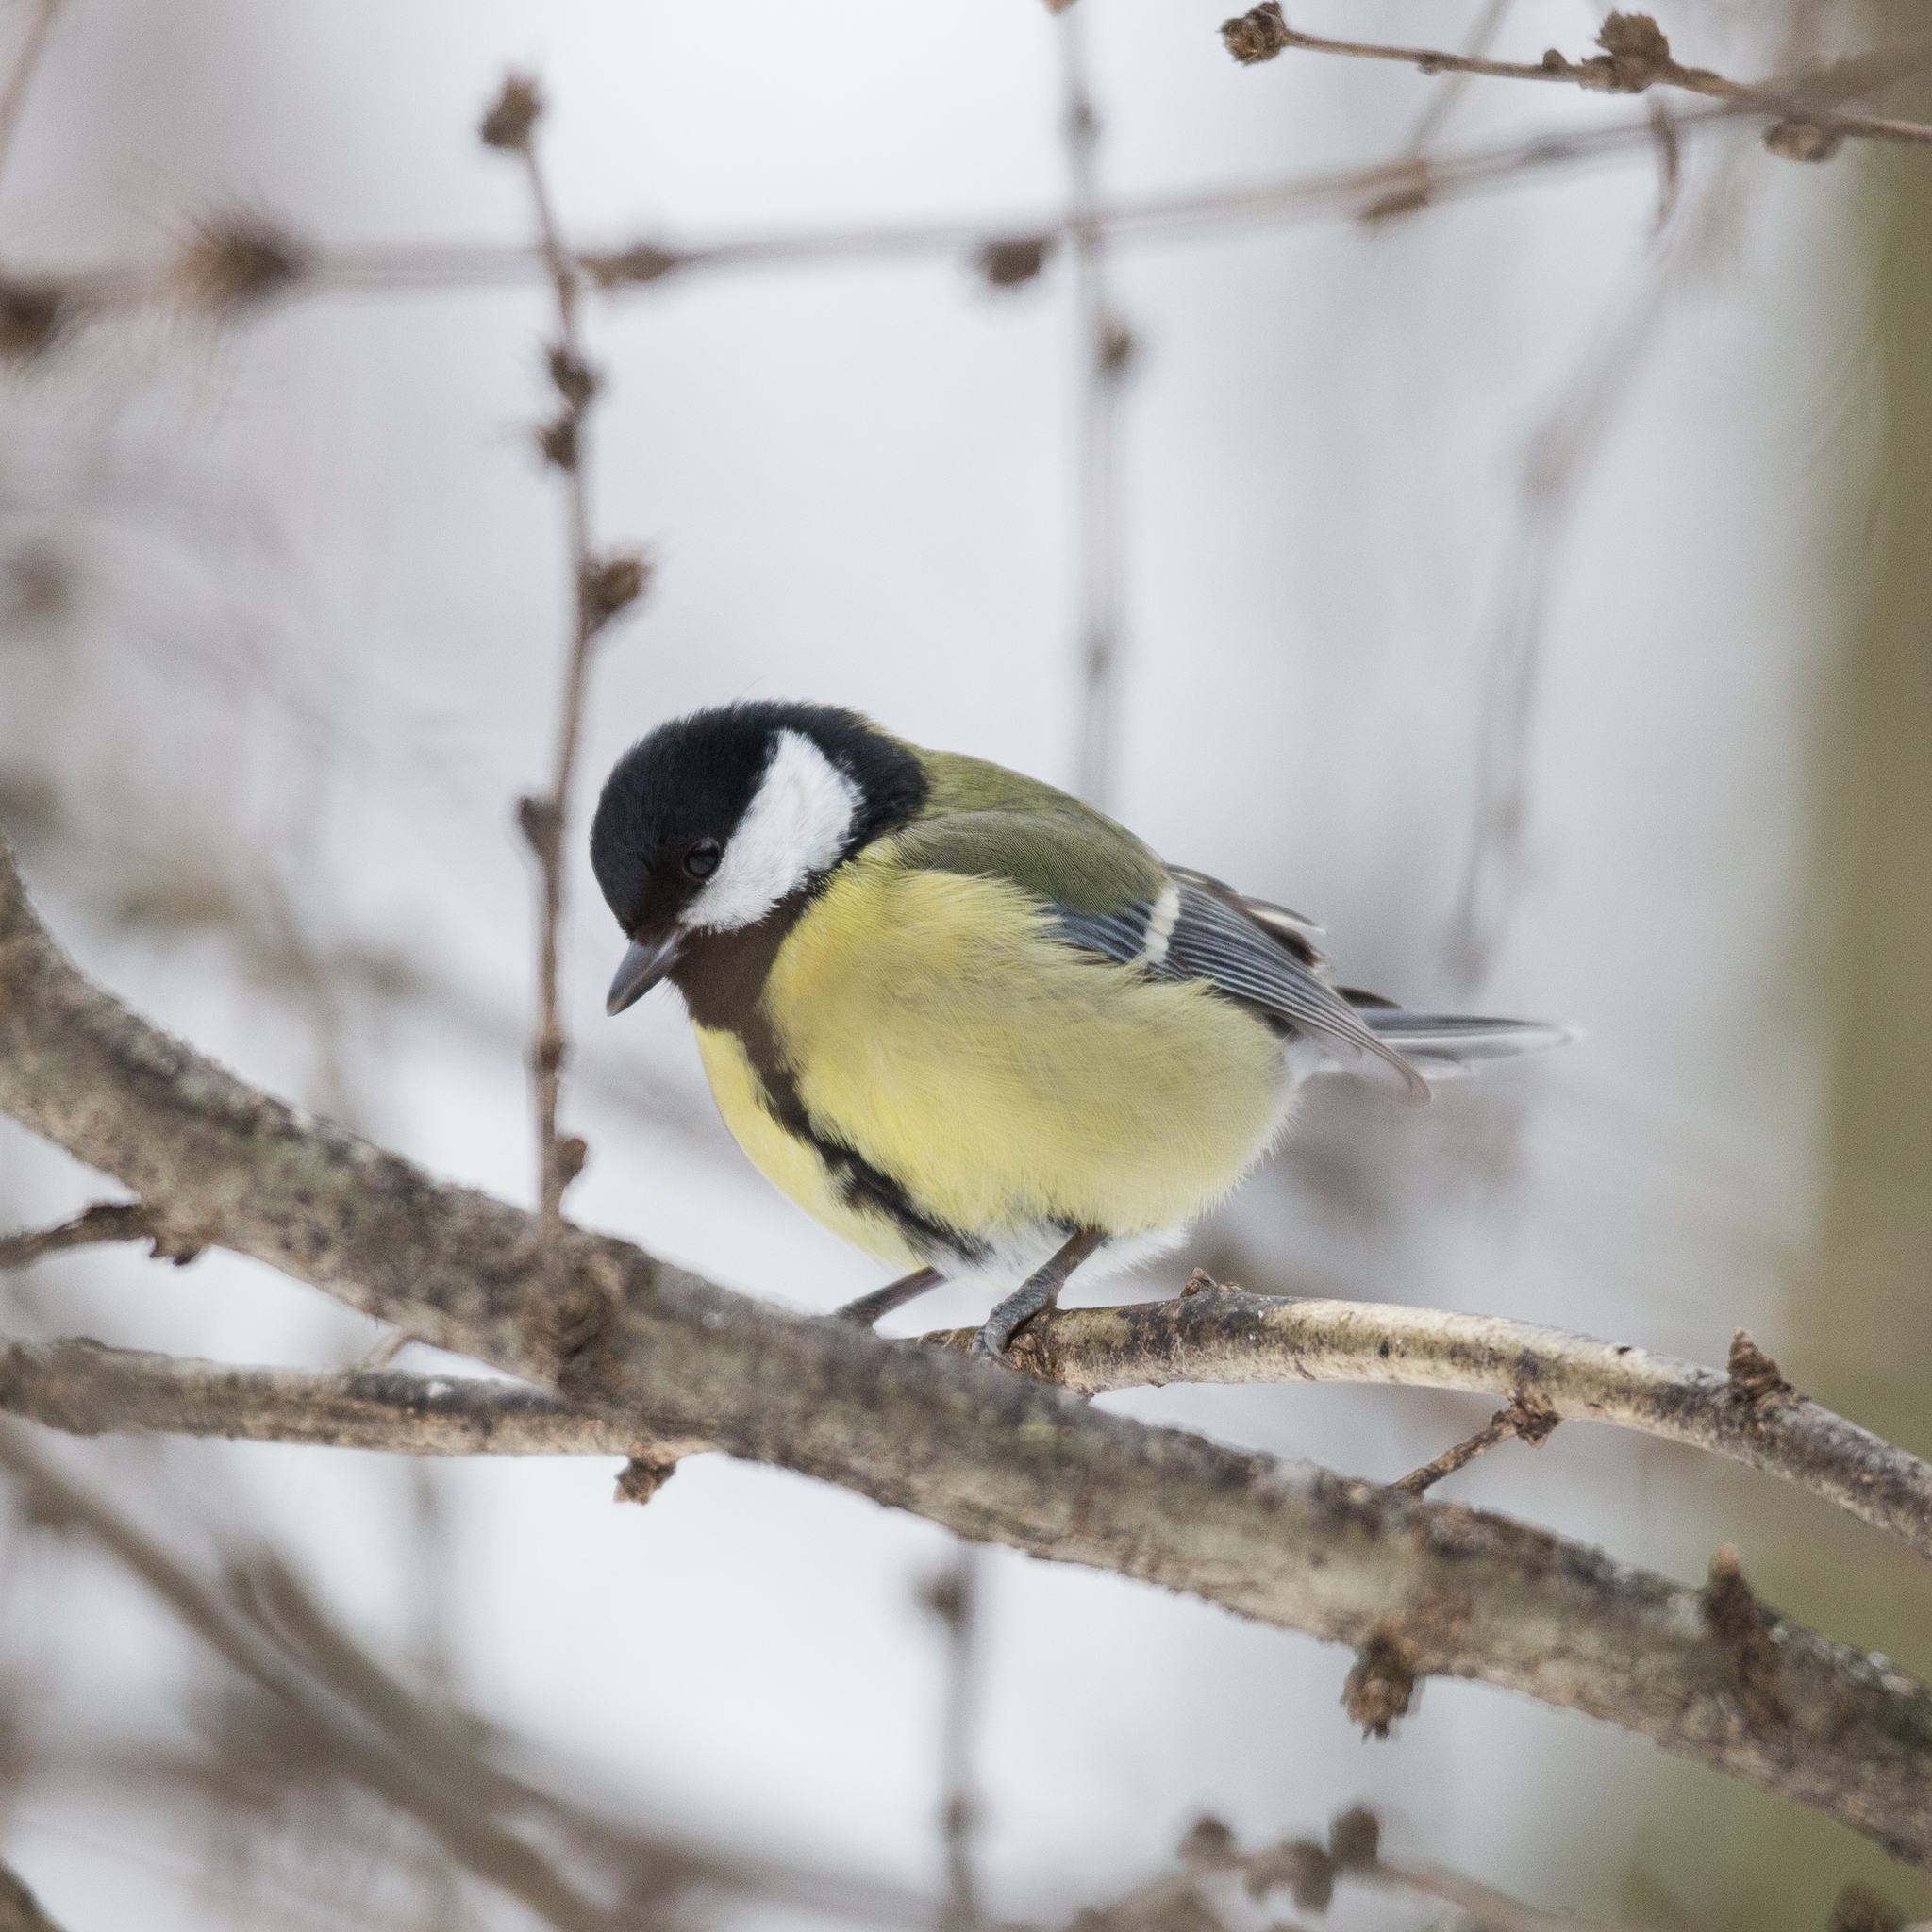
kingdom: Animalia
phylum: Chordata
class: Aves
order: Passeriformes
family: Paridae
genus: Parus
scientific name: Parus major
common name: Great tit
